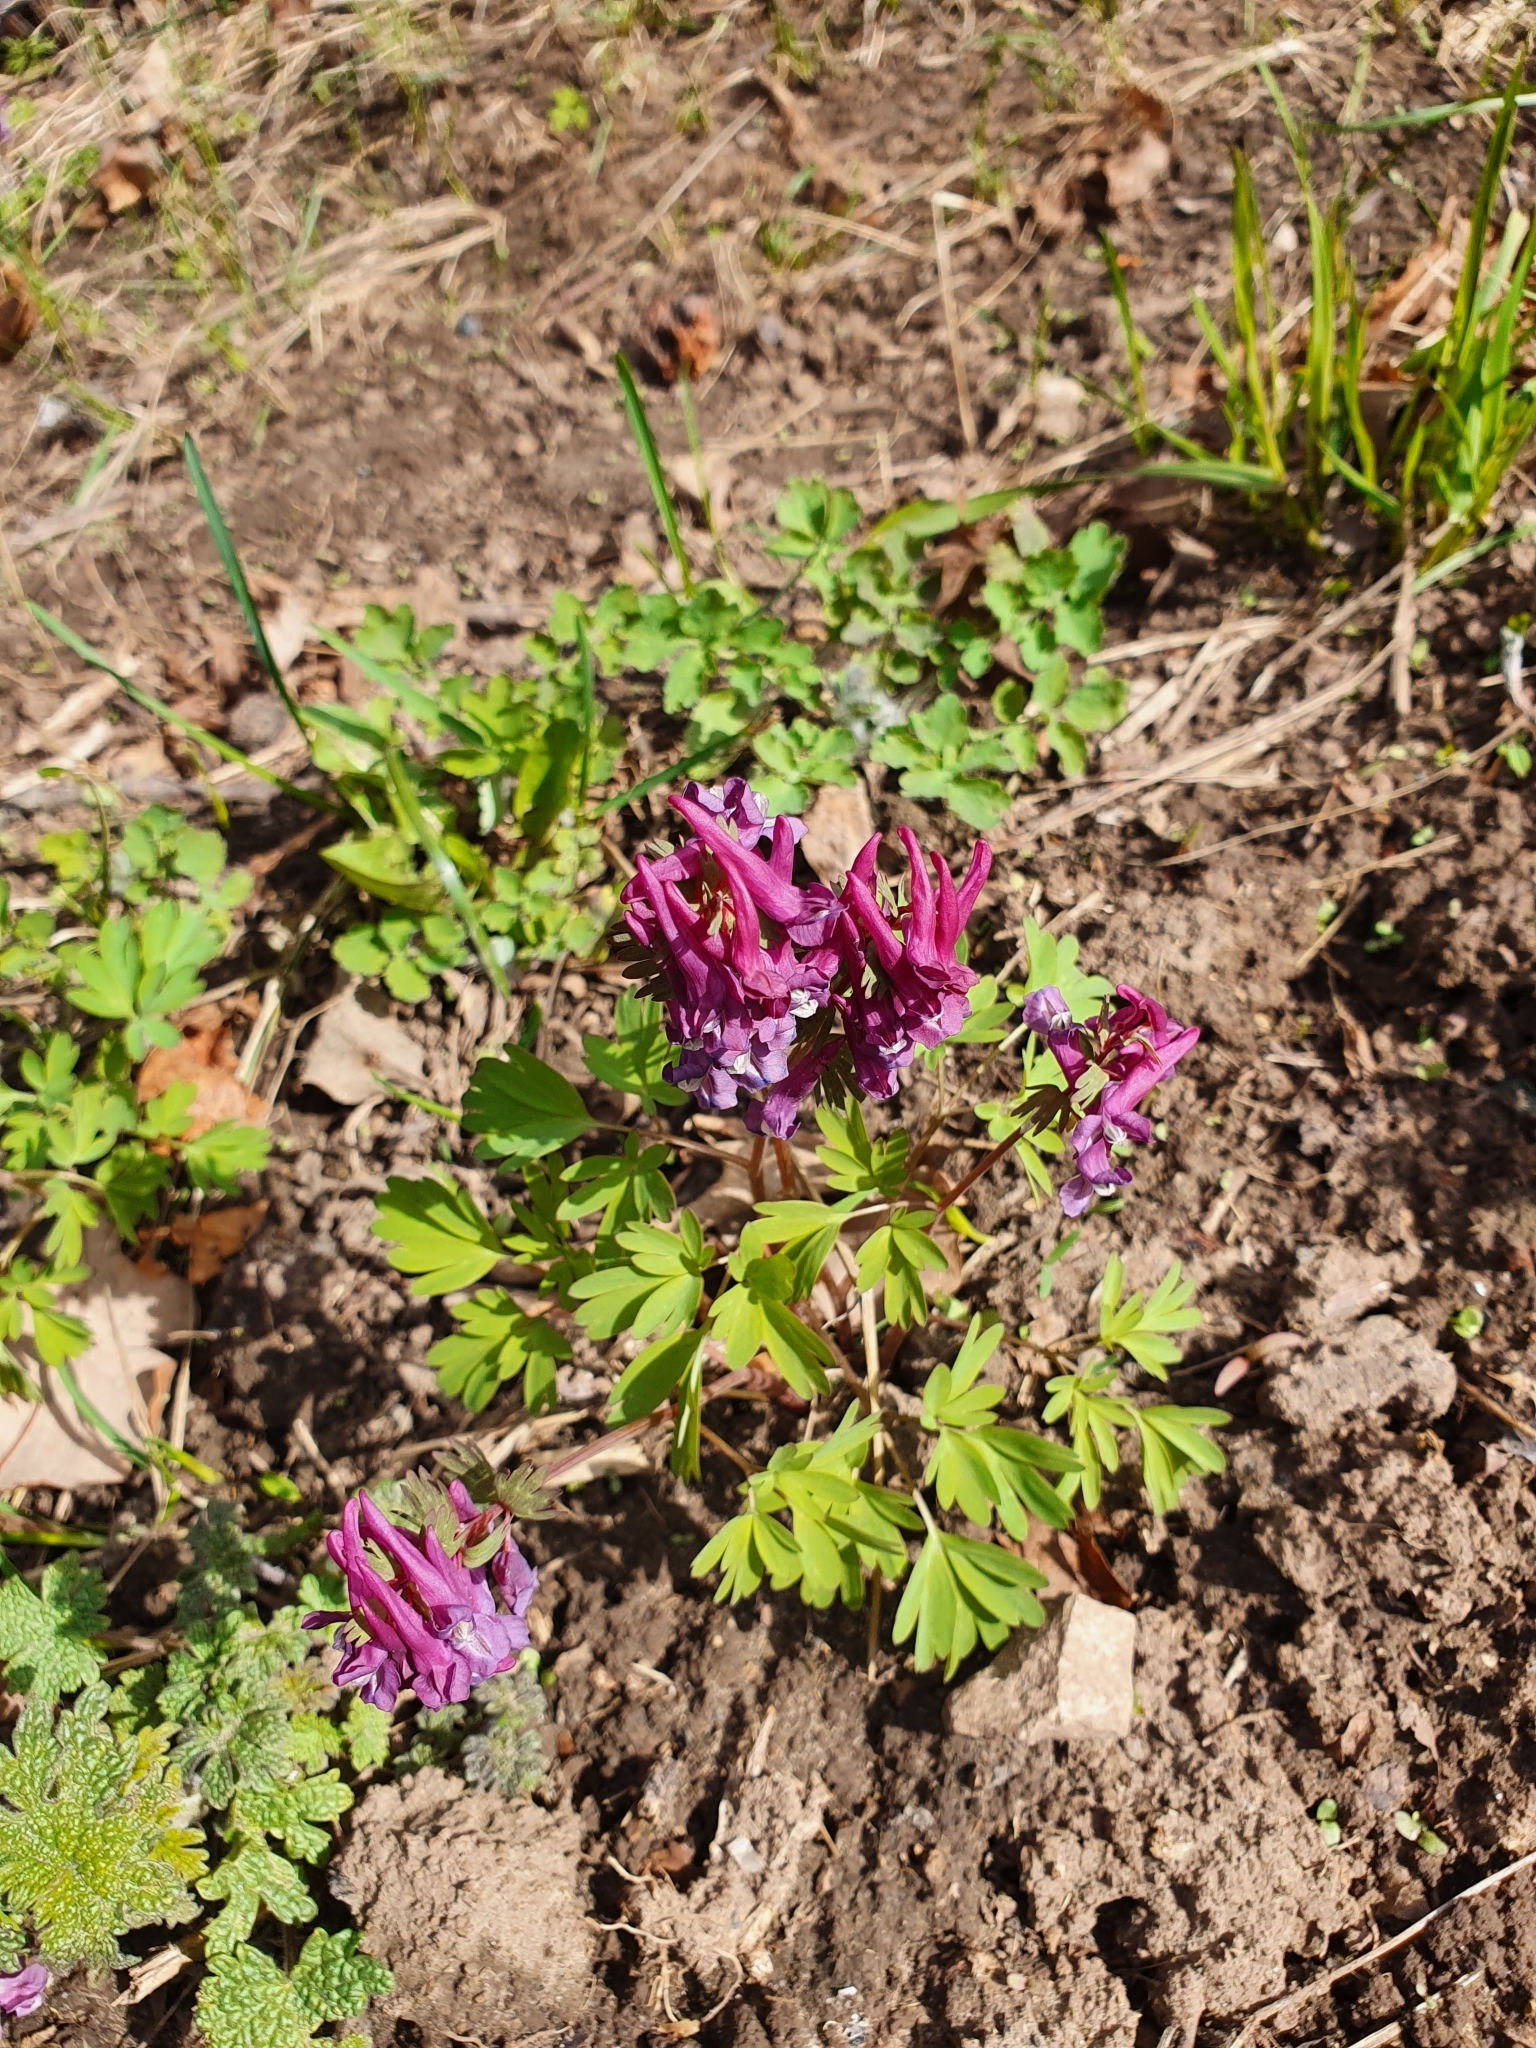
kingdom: Plantae
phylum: Tracheophyta
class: Magnoliopsida
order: Ranunculales
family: Papaveraceae
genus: Corydalis
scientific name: Corydalis solida
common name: Bird-in-a-bush
